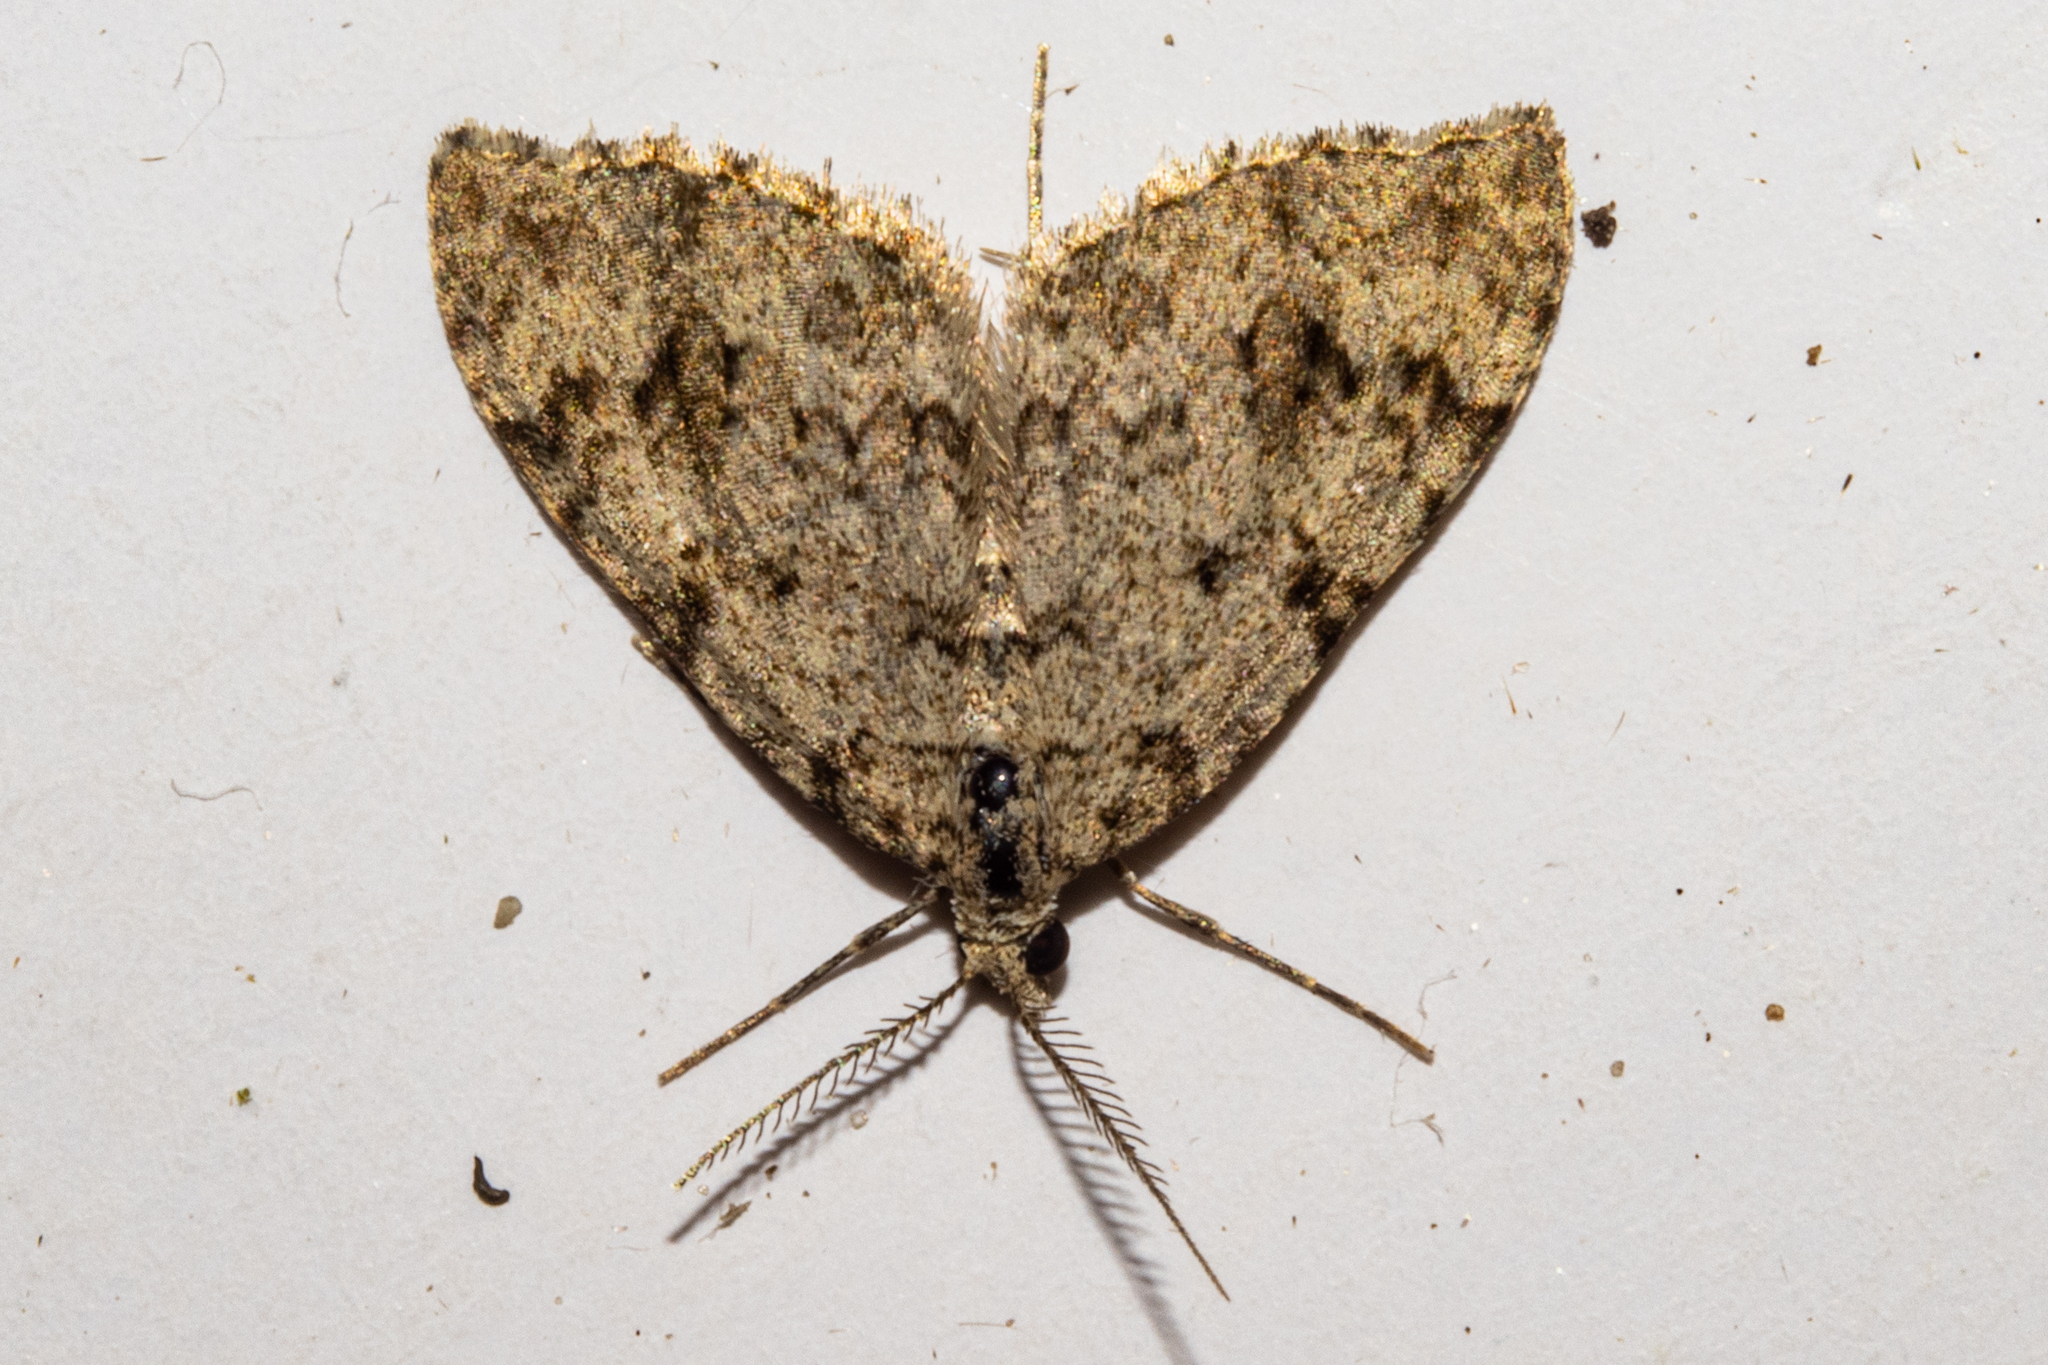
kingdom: Animalia
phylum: Arthropoda
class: Insecta
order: Lepidoptera
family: Geometridae
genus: Helastia
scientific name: Helastia cinerearia
